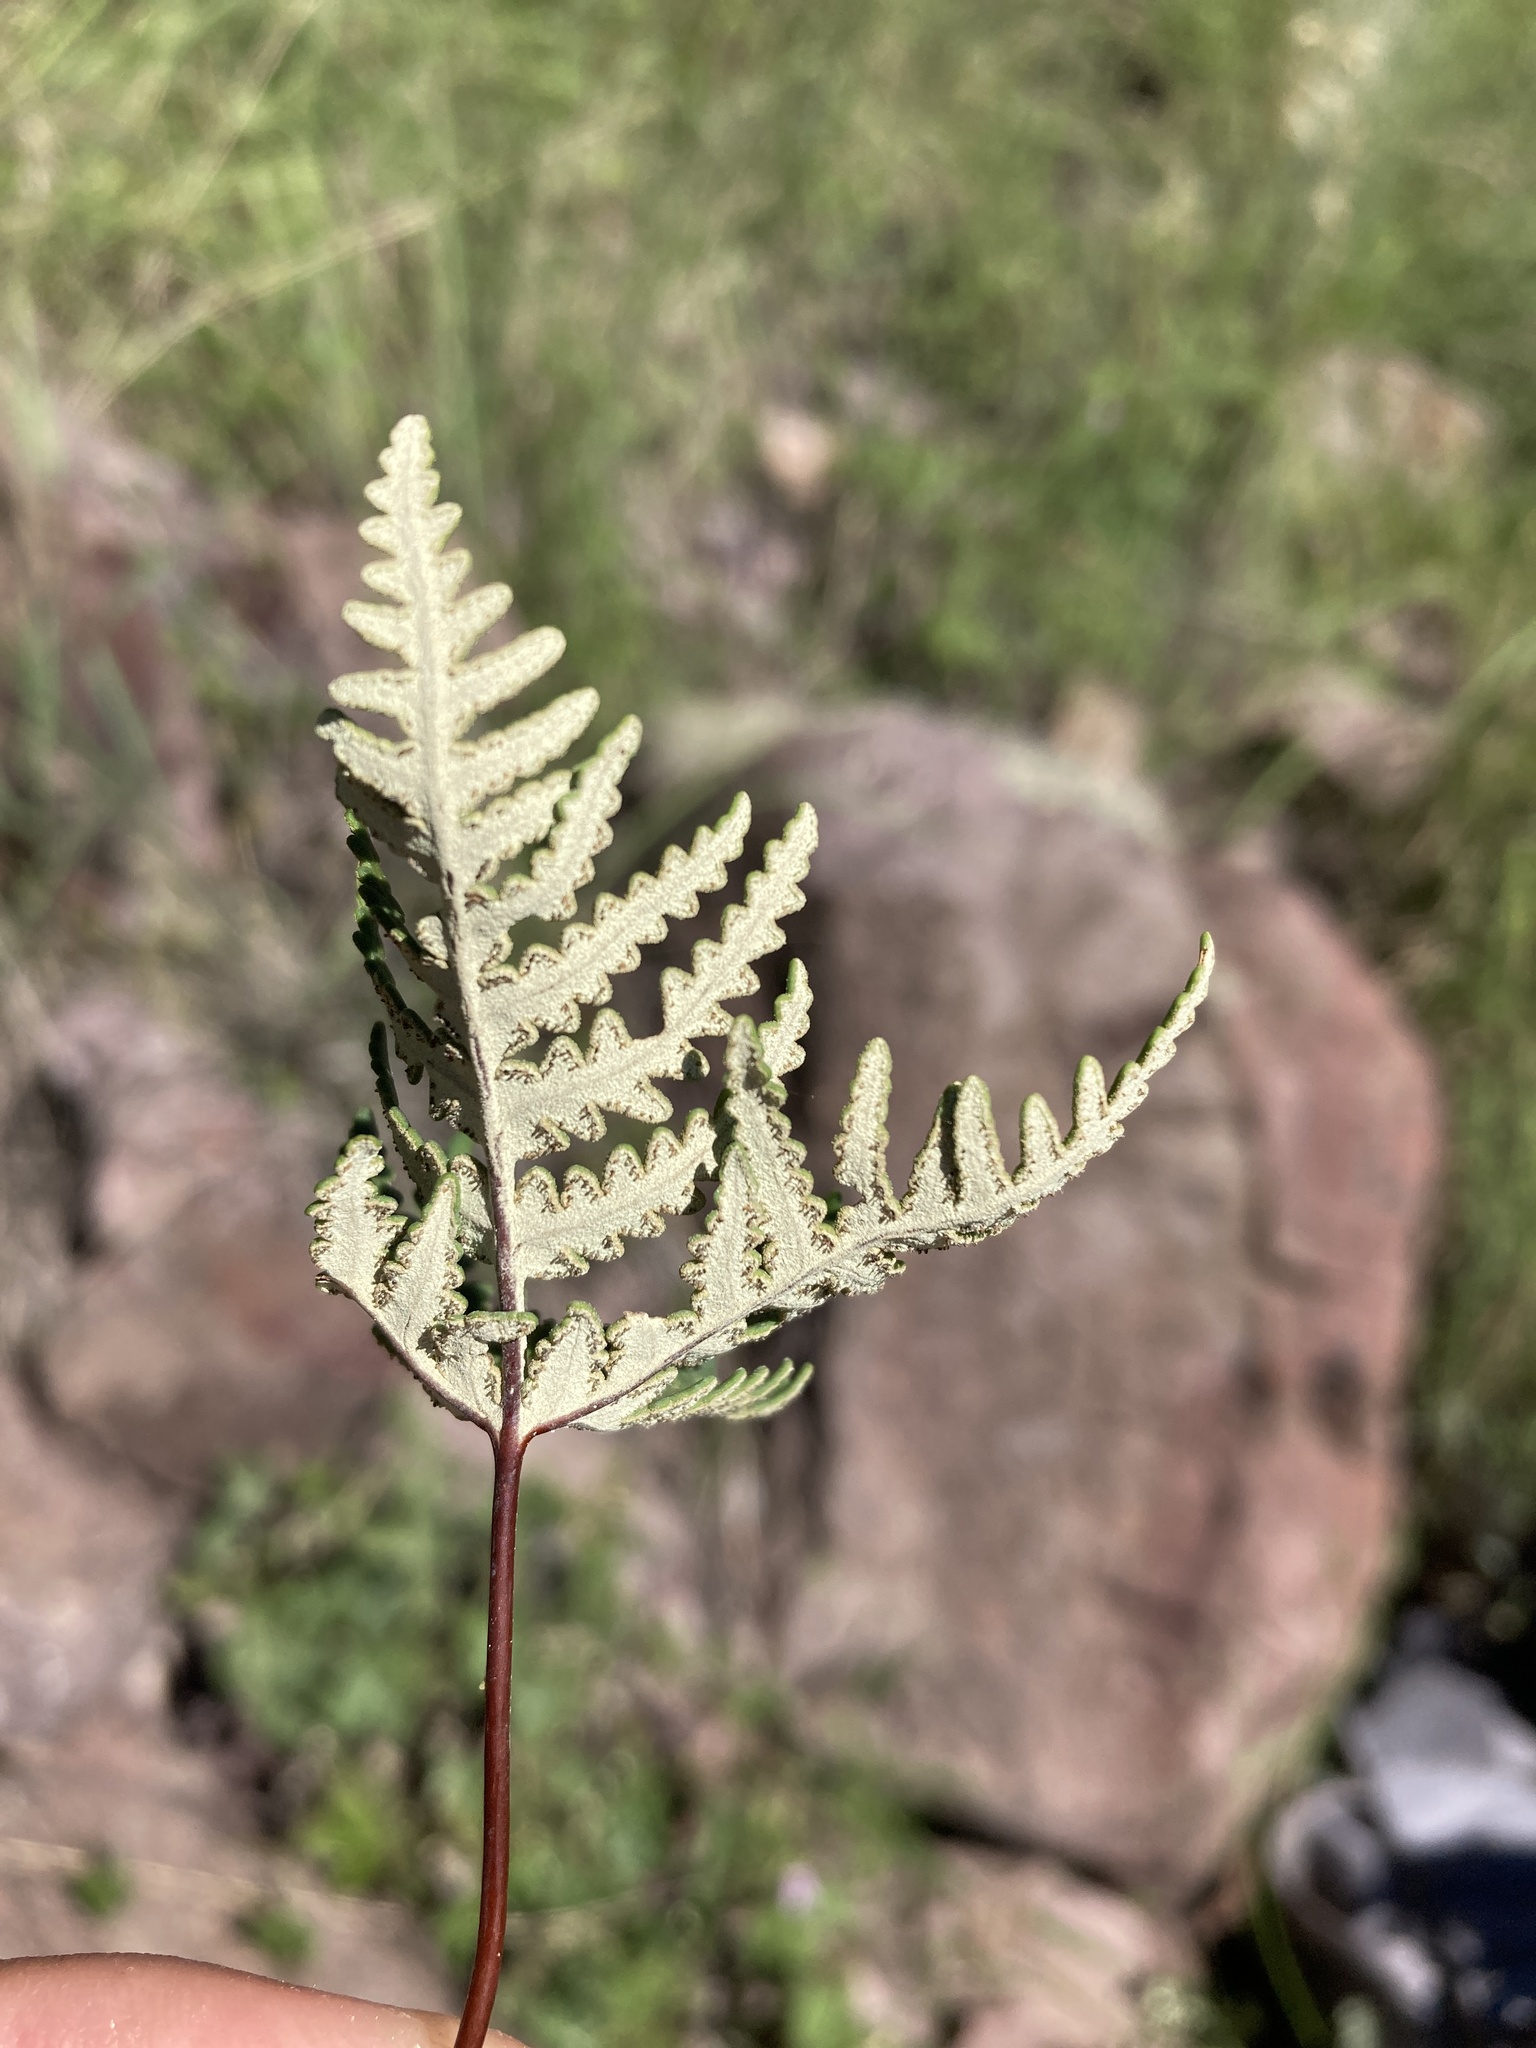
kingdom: Plantae
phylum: Tracheophyta
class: Polypodiopsida
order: Polypodiales
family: Pteridaceae
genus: Notholaena
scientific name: Notholaena standleyi
